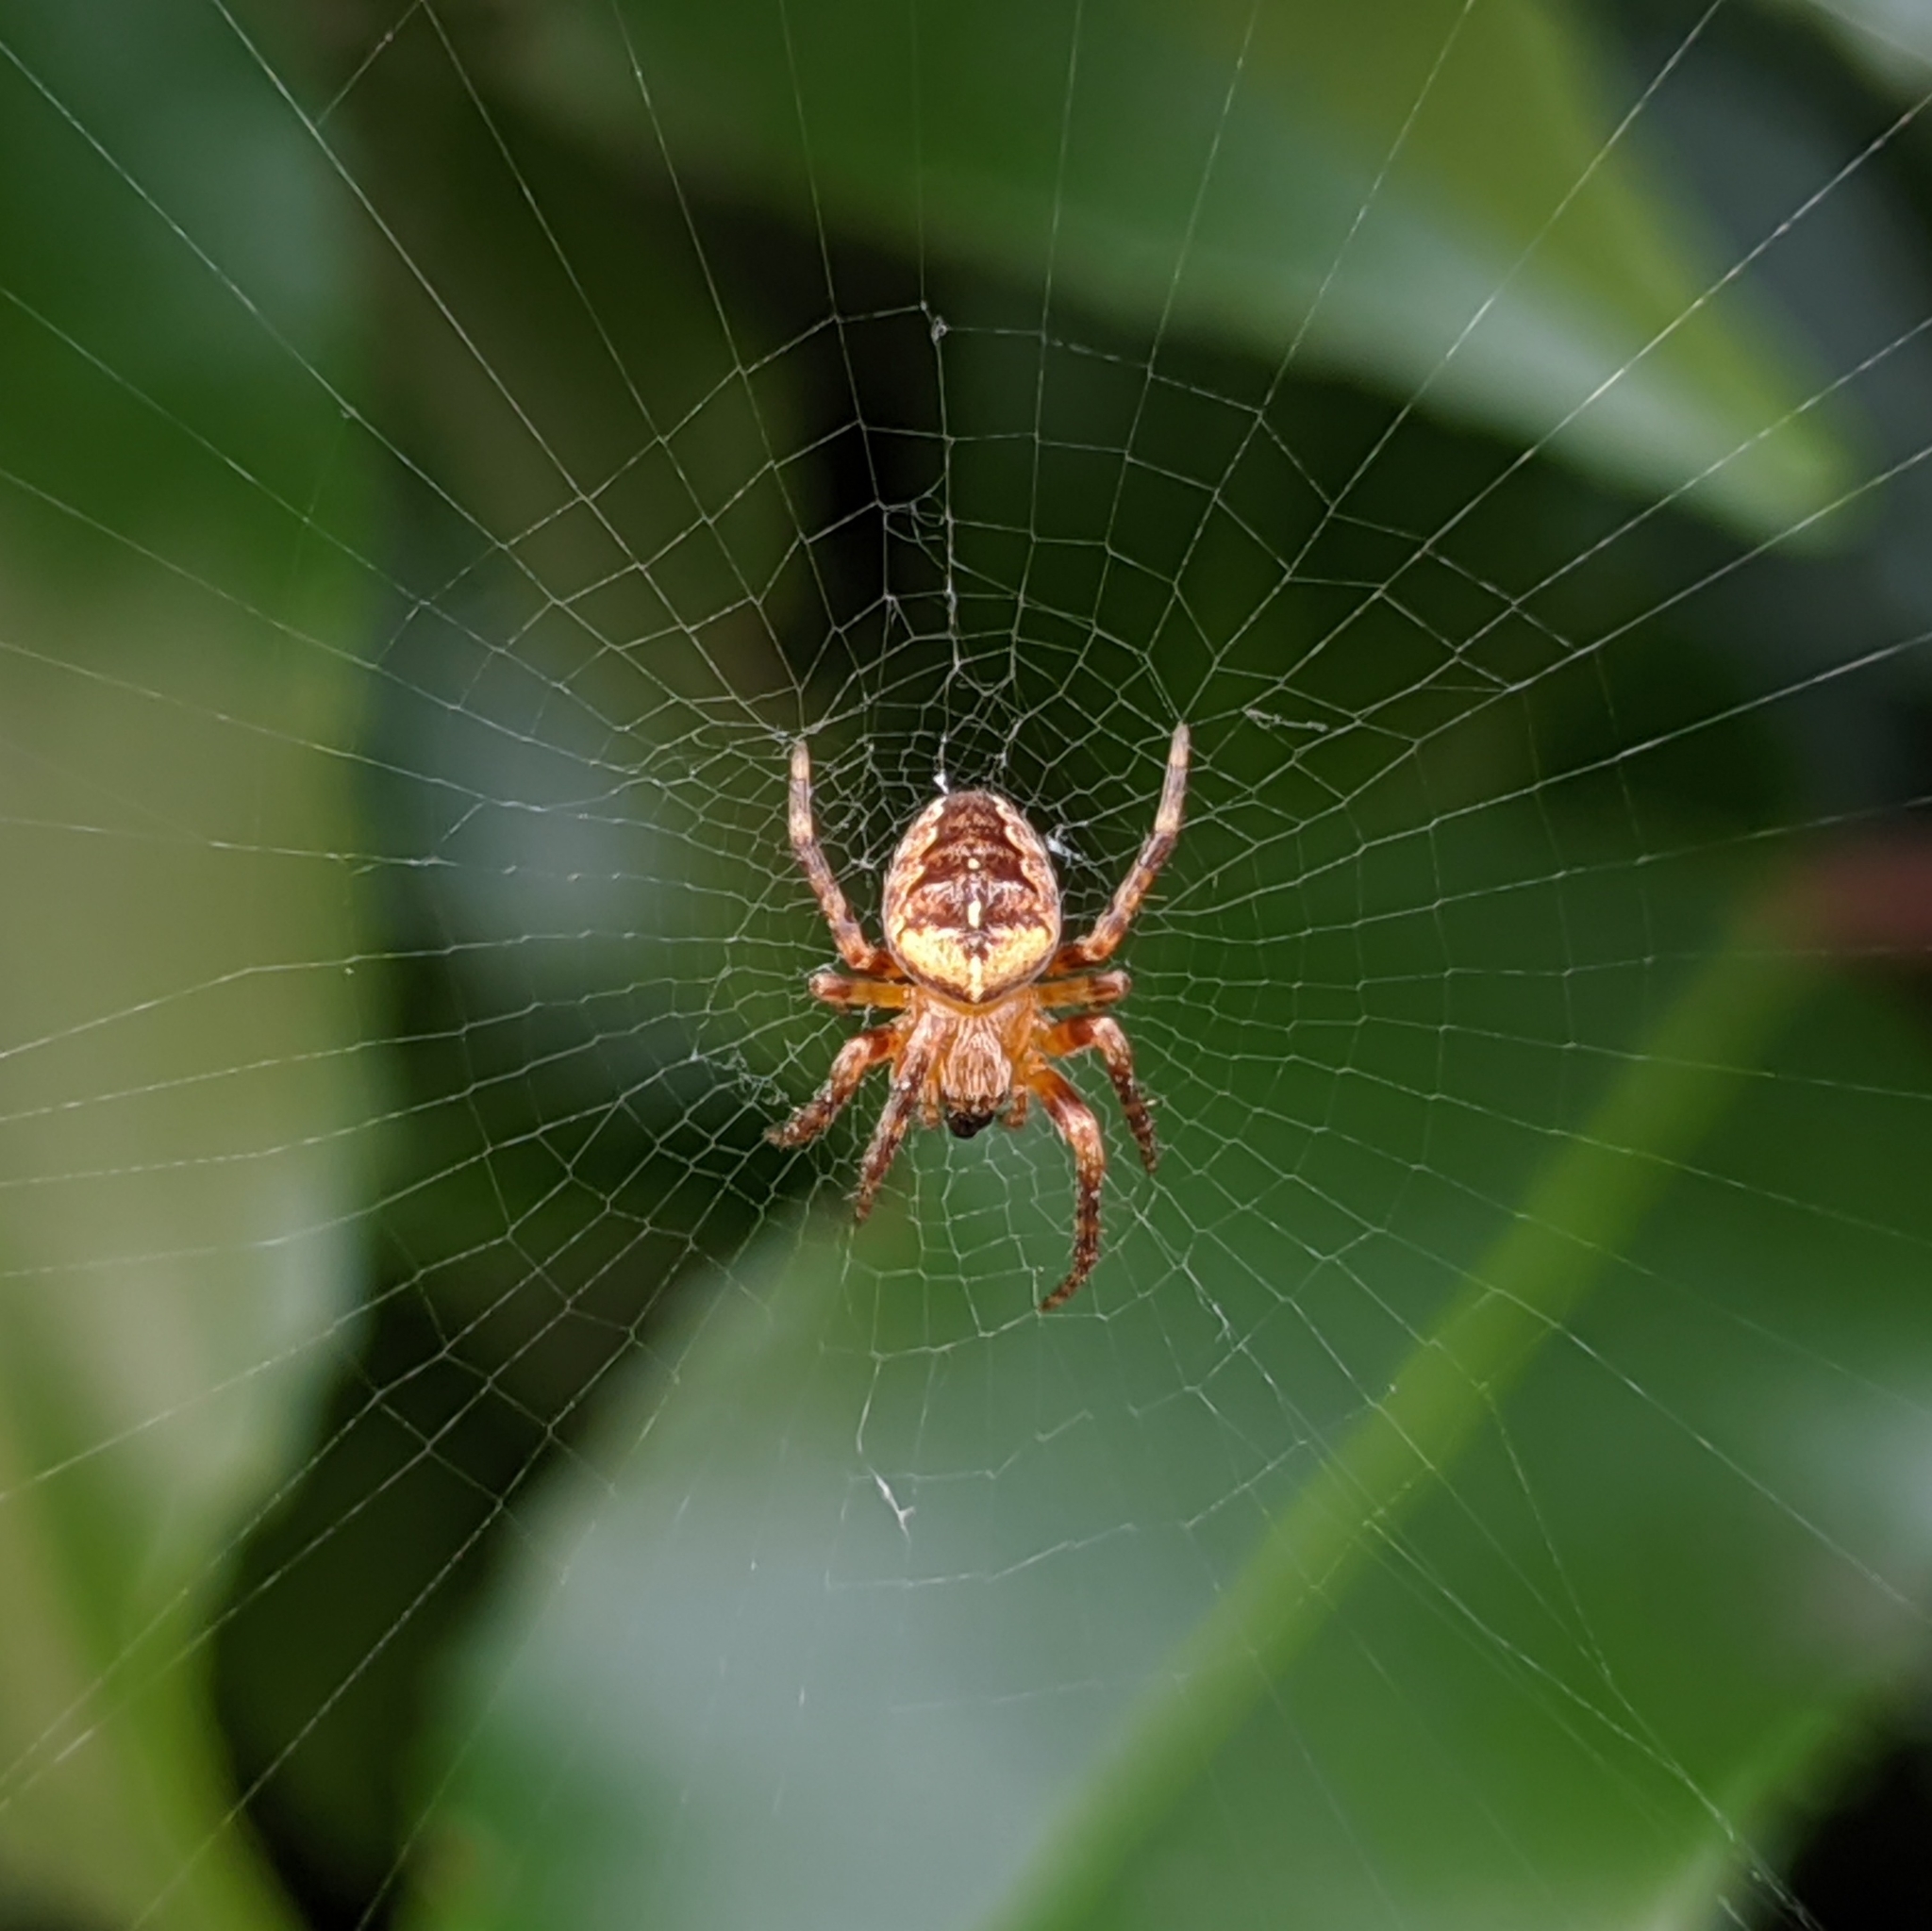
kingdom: Animalia
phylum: Arthropoda
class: Arachnida
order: Araneae
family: Araneidae
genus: Araneus
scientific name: Araneus diadematus
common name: Cross orbweaver
